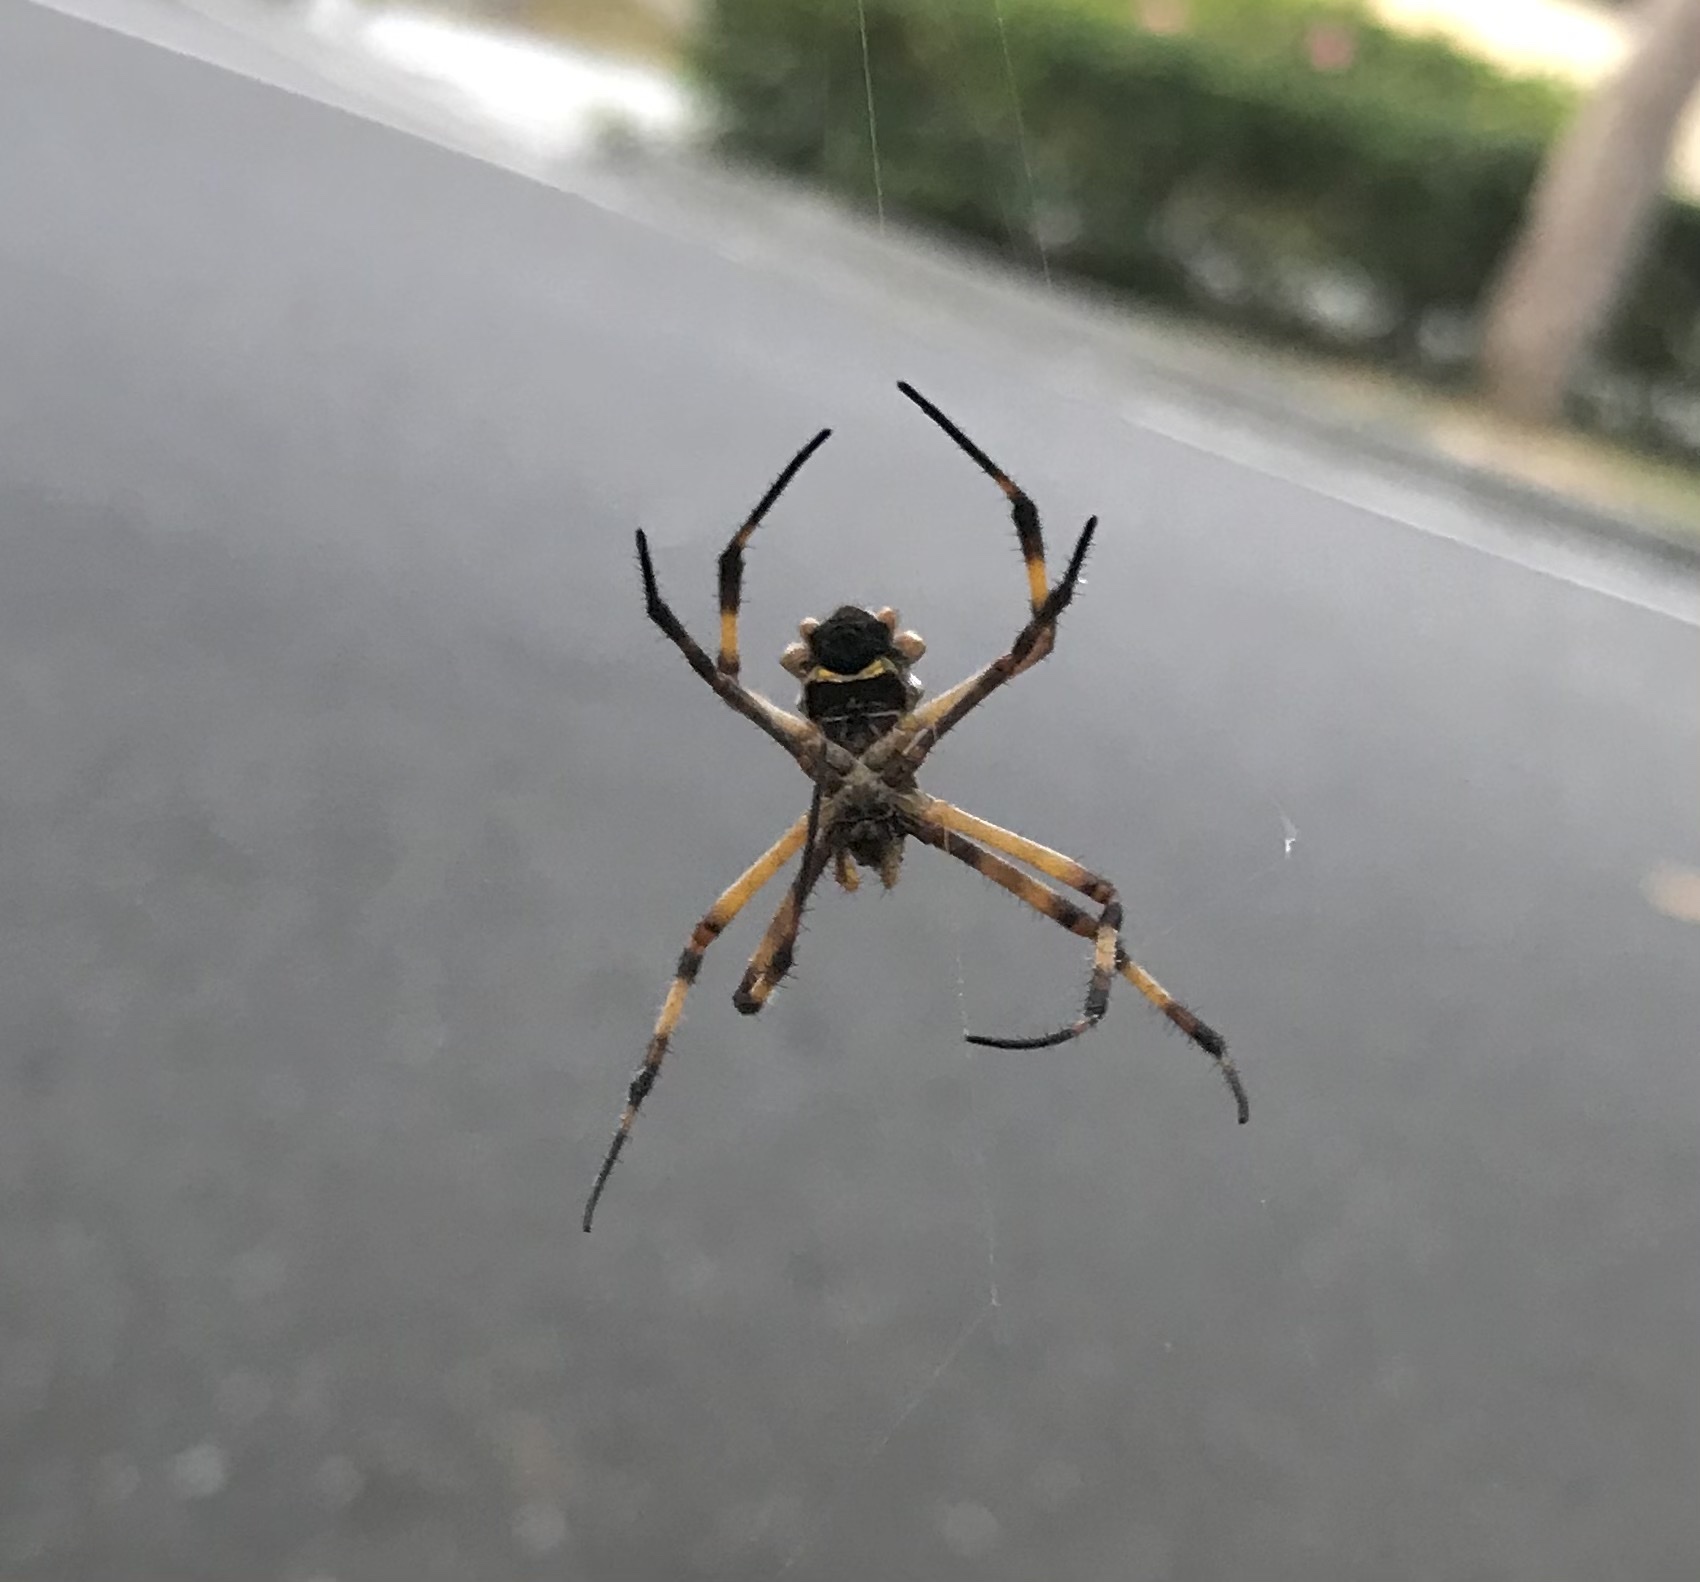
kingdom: Animalia
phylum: Arthropoda
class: Arachnida
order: Araneae
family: Araneidae
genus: Argiope
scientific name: Argiope argentata
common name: Orb weavers
